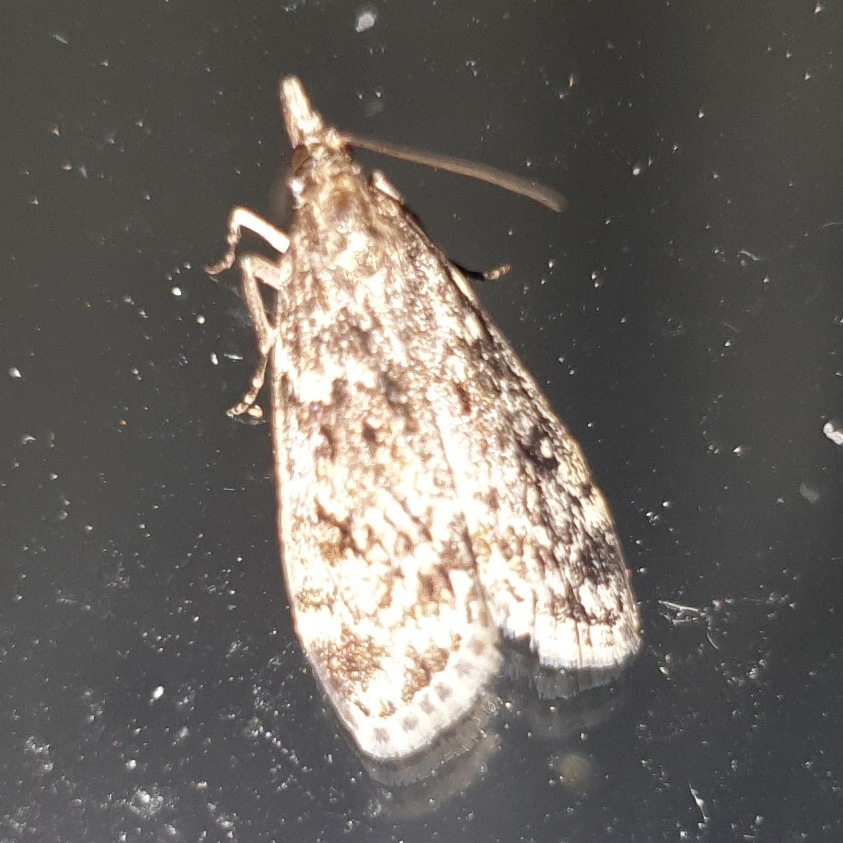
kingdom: Animalia
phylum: Arthropoda
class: Insecta
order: Lepidoptera
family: Crambidae
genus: Eudonia
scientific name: Eudonia truncicolella
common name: Ground-moss grey
